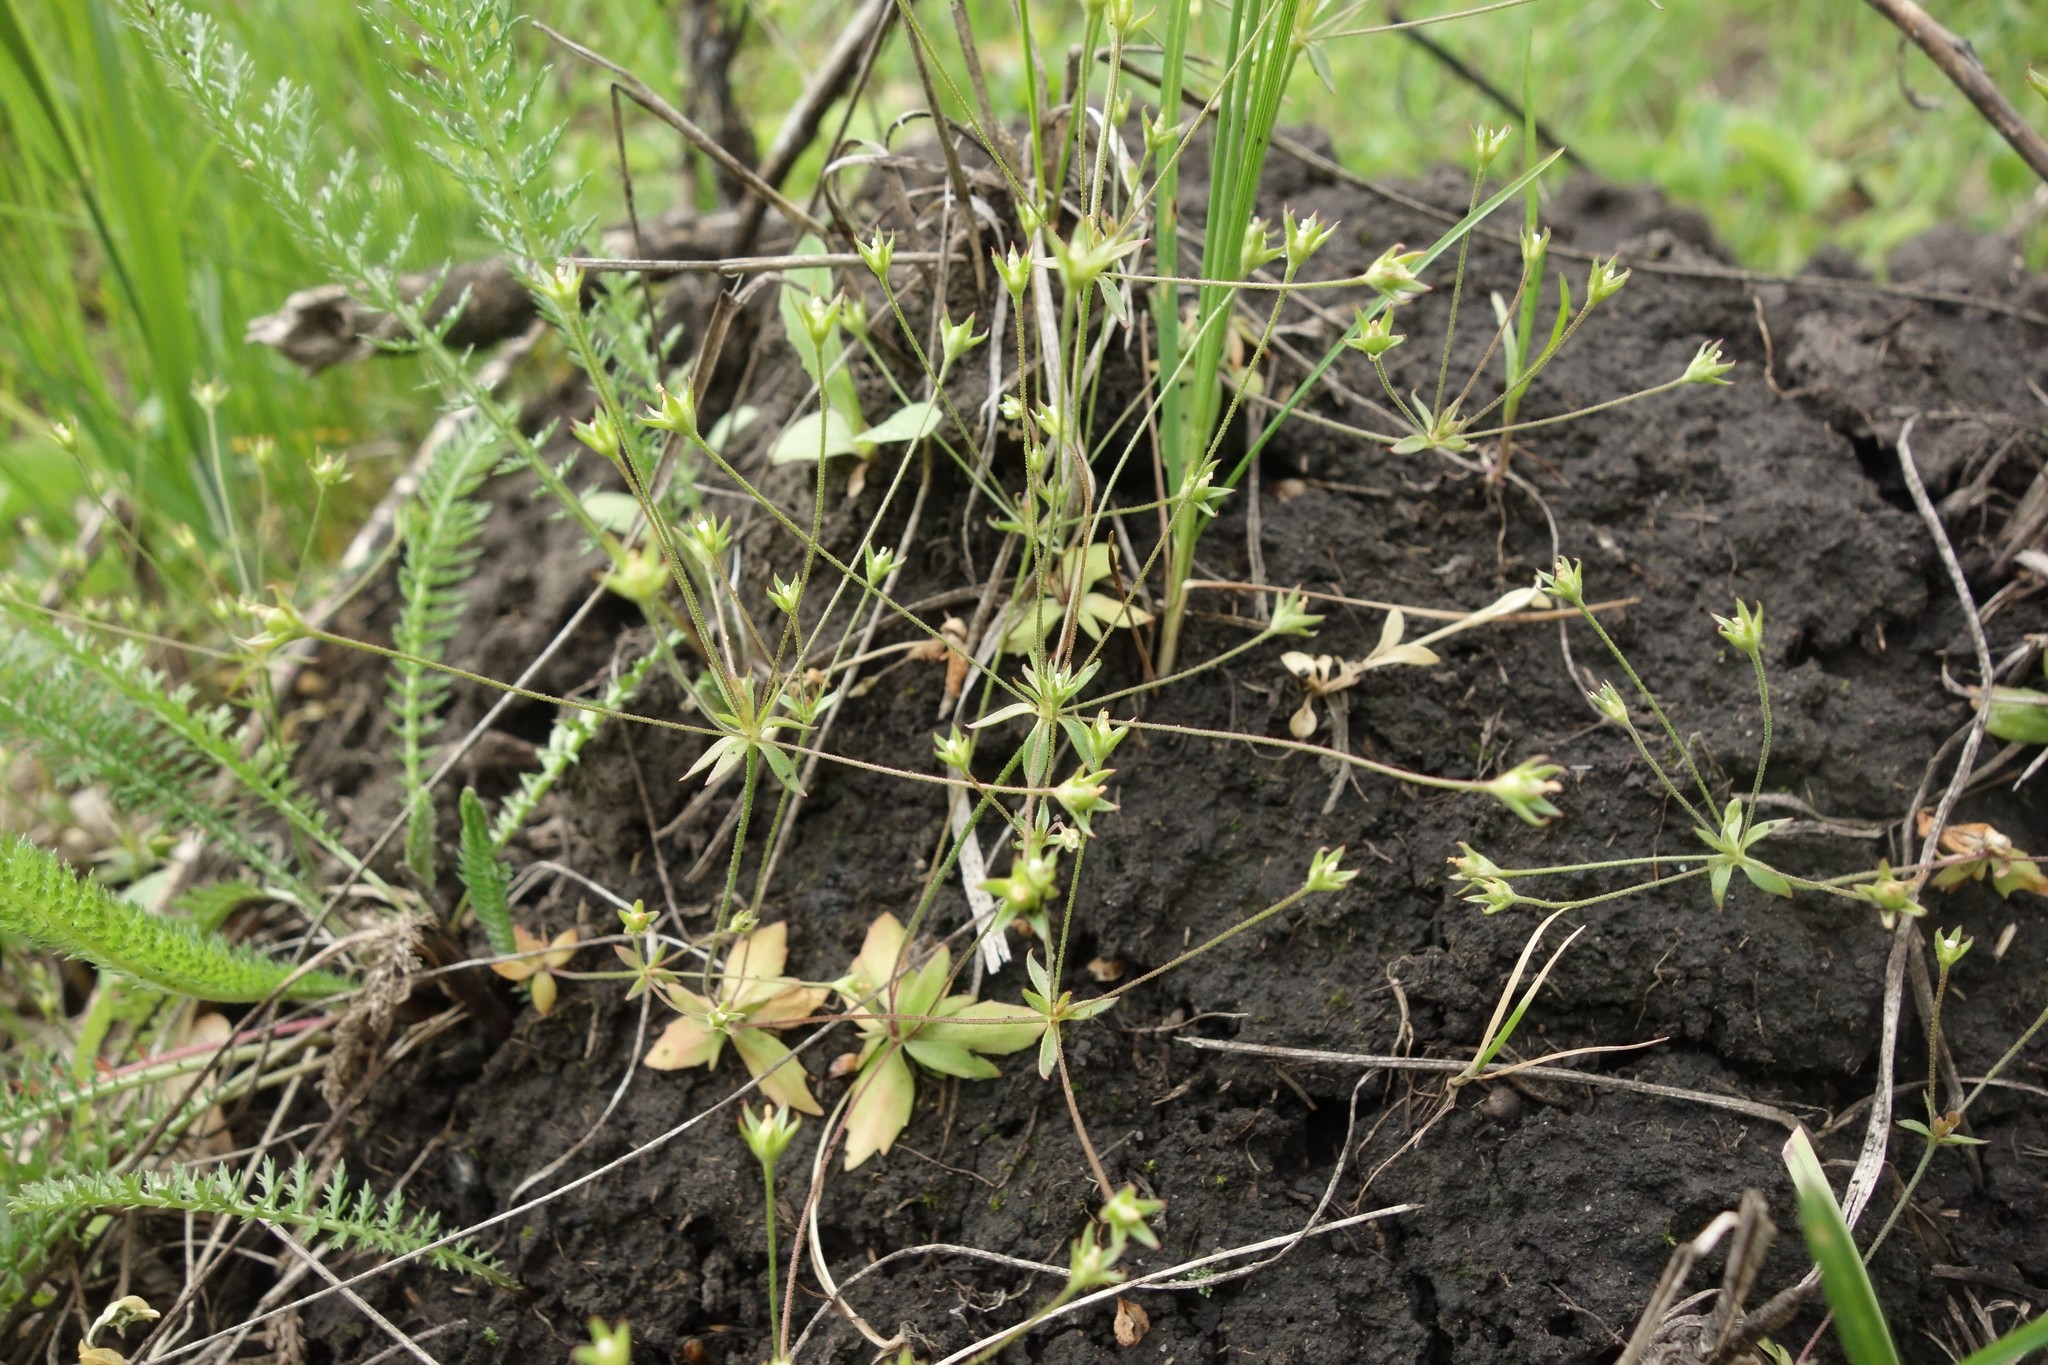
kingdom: Plantae
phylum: Tracheophyta
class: Magnoliopsida
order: Ericales
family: Primulaceae
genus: Androsace
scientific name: Androsace elongata
